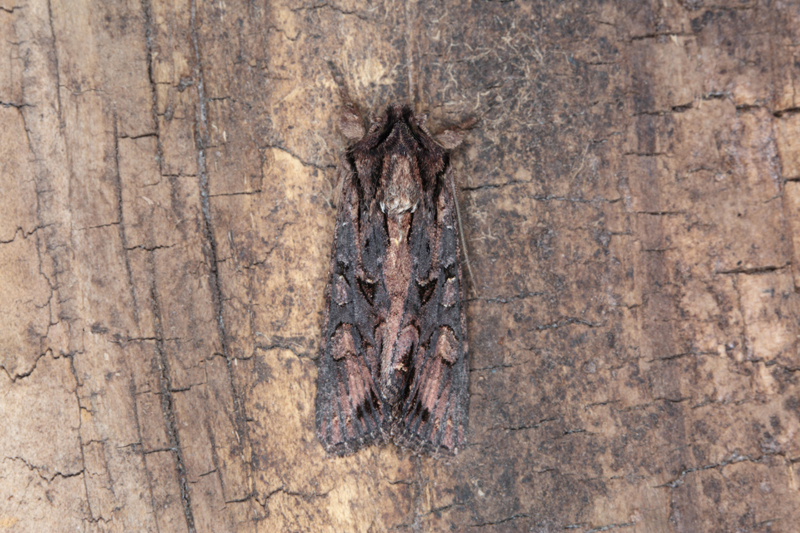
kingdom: Animalia
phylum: Arthropoda
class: Insecta
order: Lepidoptera
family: Noctuidae
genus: Ichneutica
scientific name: Ichneutica
